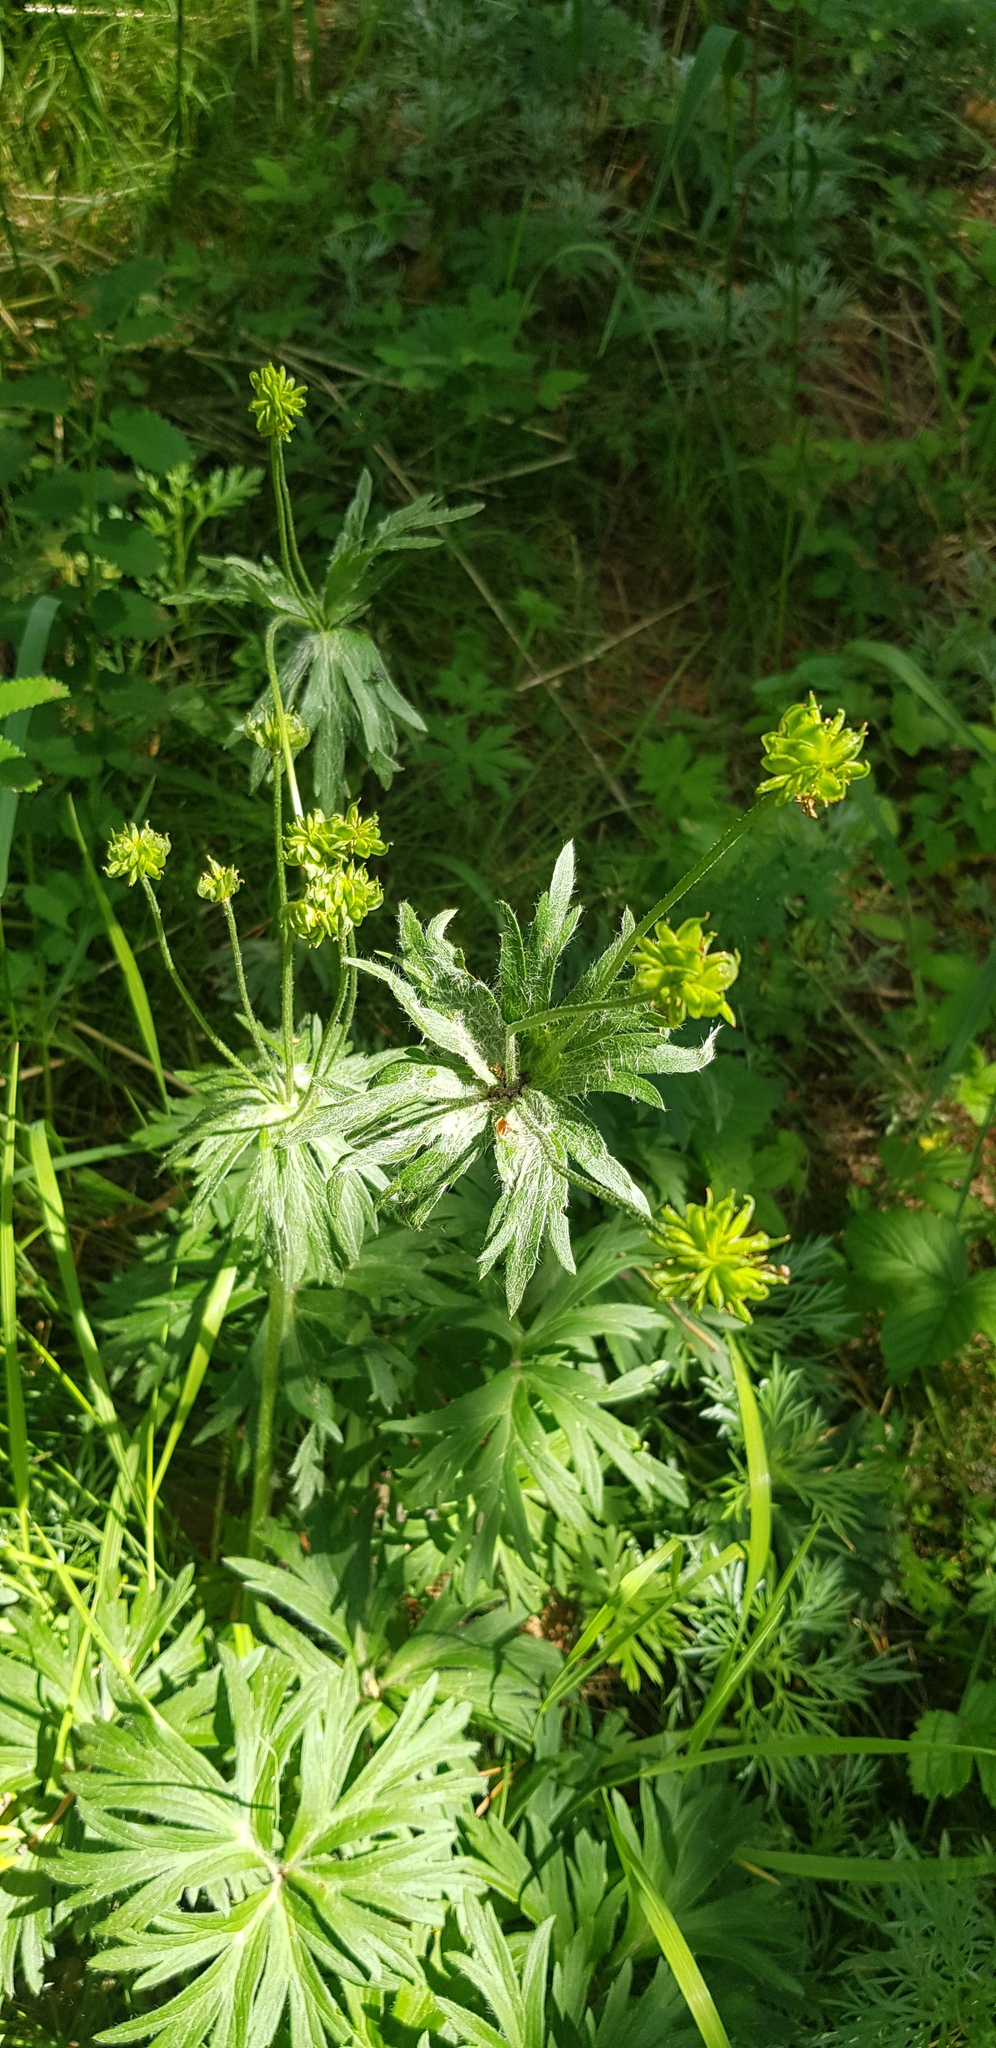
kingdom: Plantae
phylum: Tracheophyta
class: Magnoliopsida
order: Ranunculales
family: Ranunculaceae
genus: Anemonastrum
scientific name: Anemonastrum narcissiflorum
